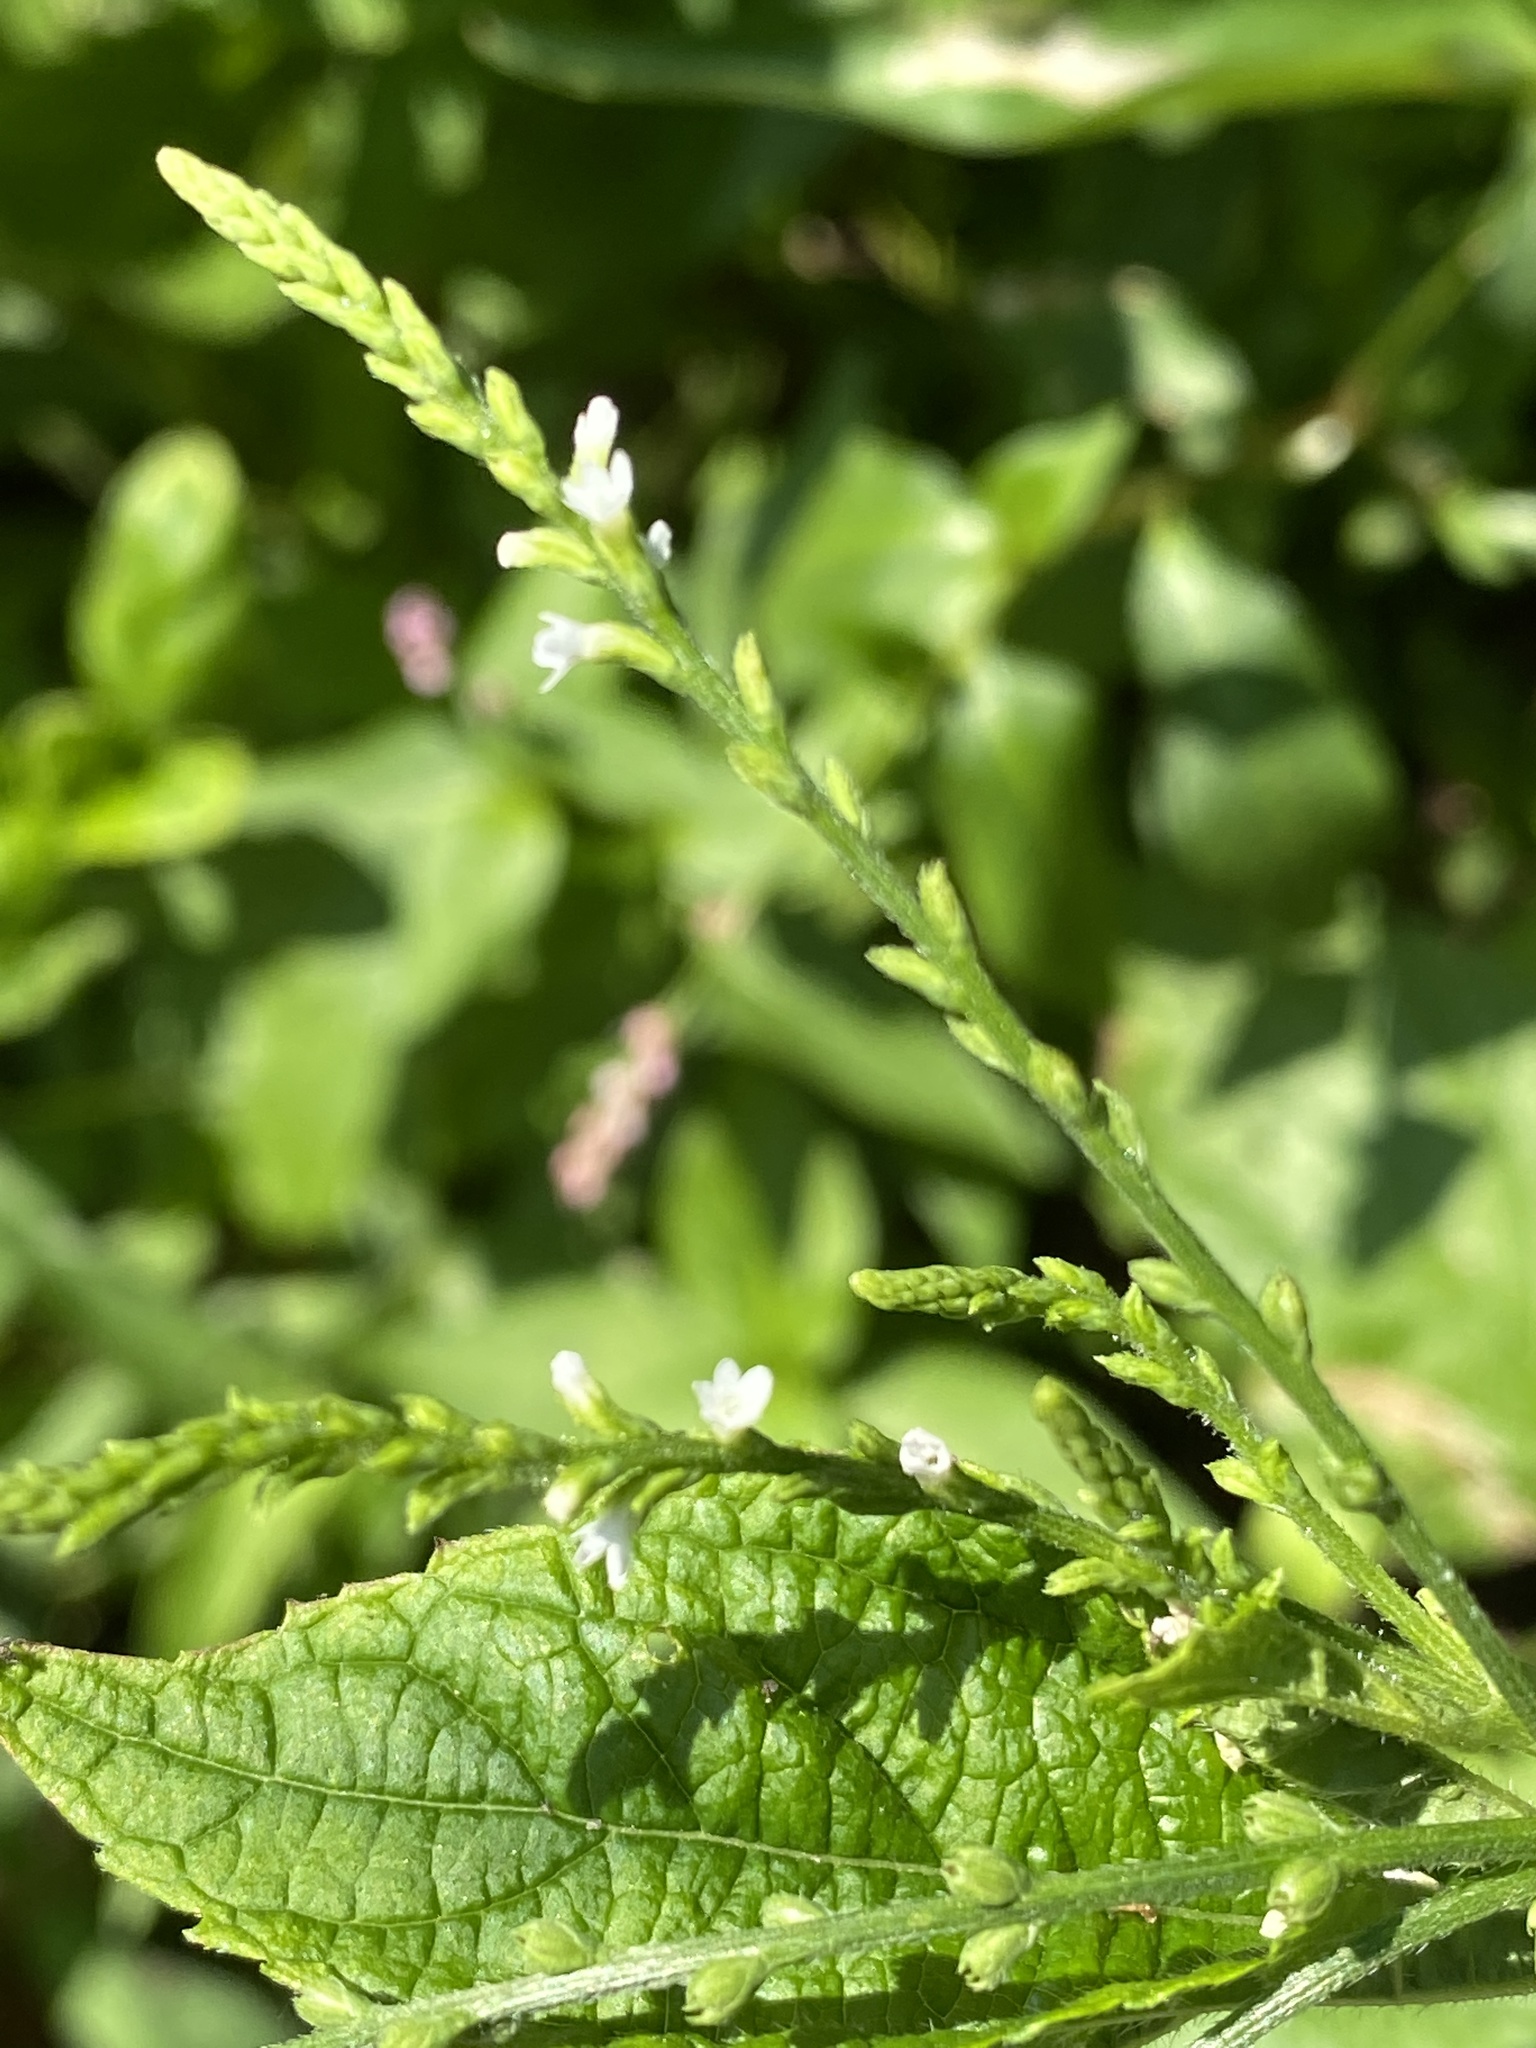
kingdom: Plantae
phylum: Tracheophyta
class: Magnoliopsida
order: Lamiales
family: Verbenaceae
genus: Verbena
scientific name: Verbena urticifolia
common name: Nettle-leaved vervain
